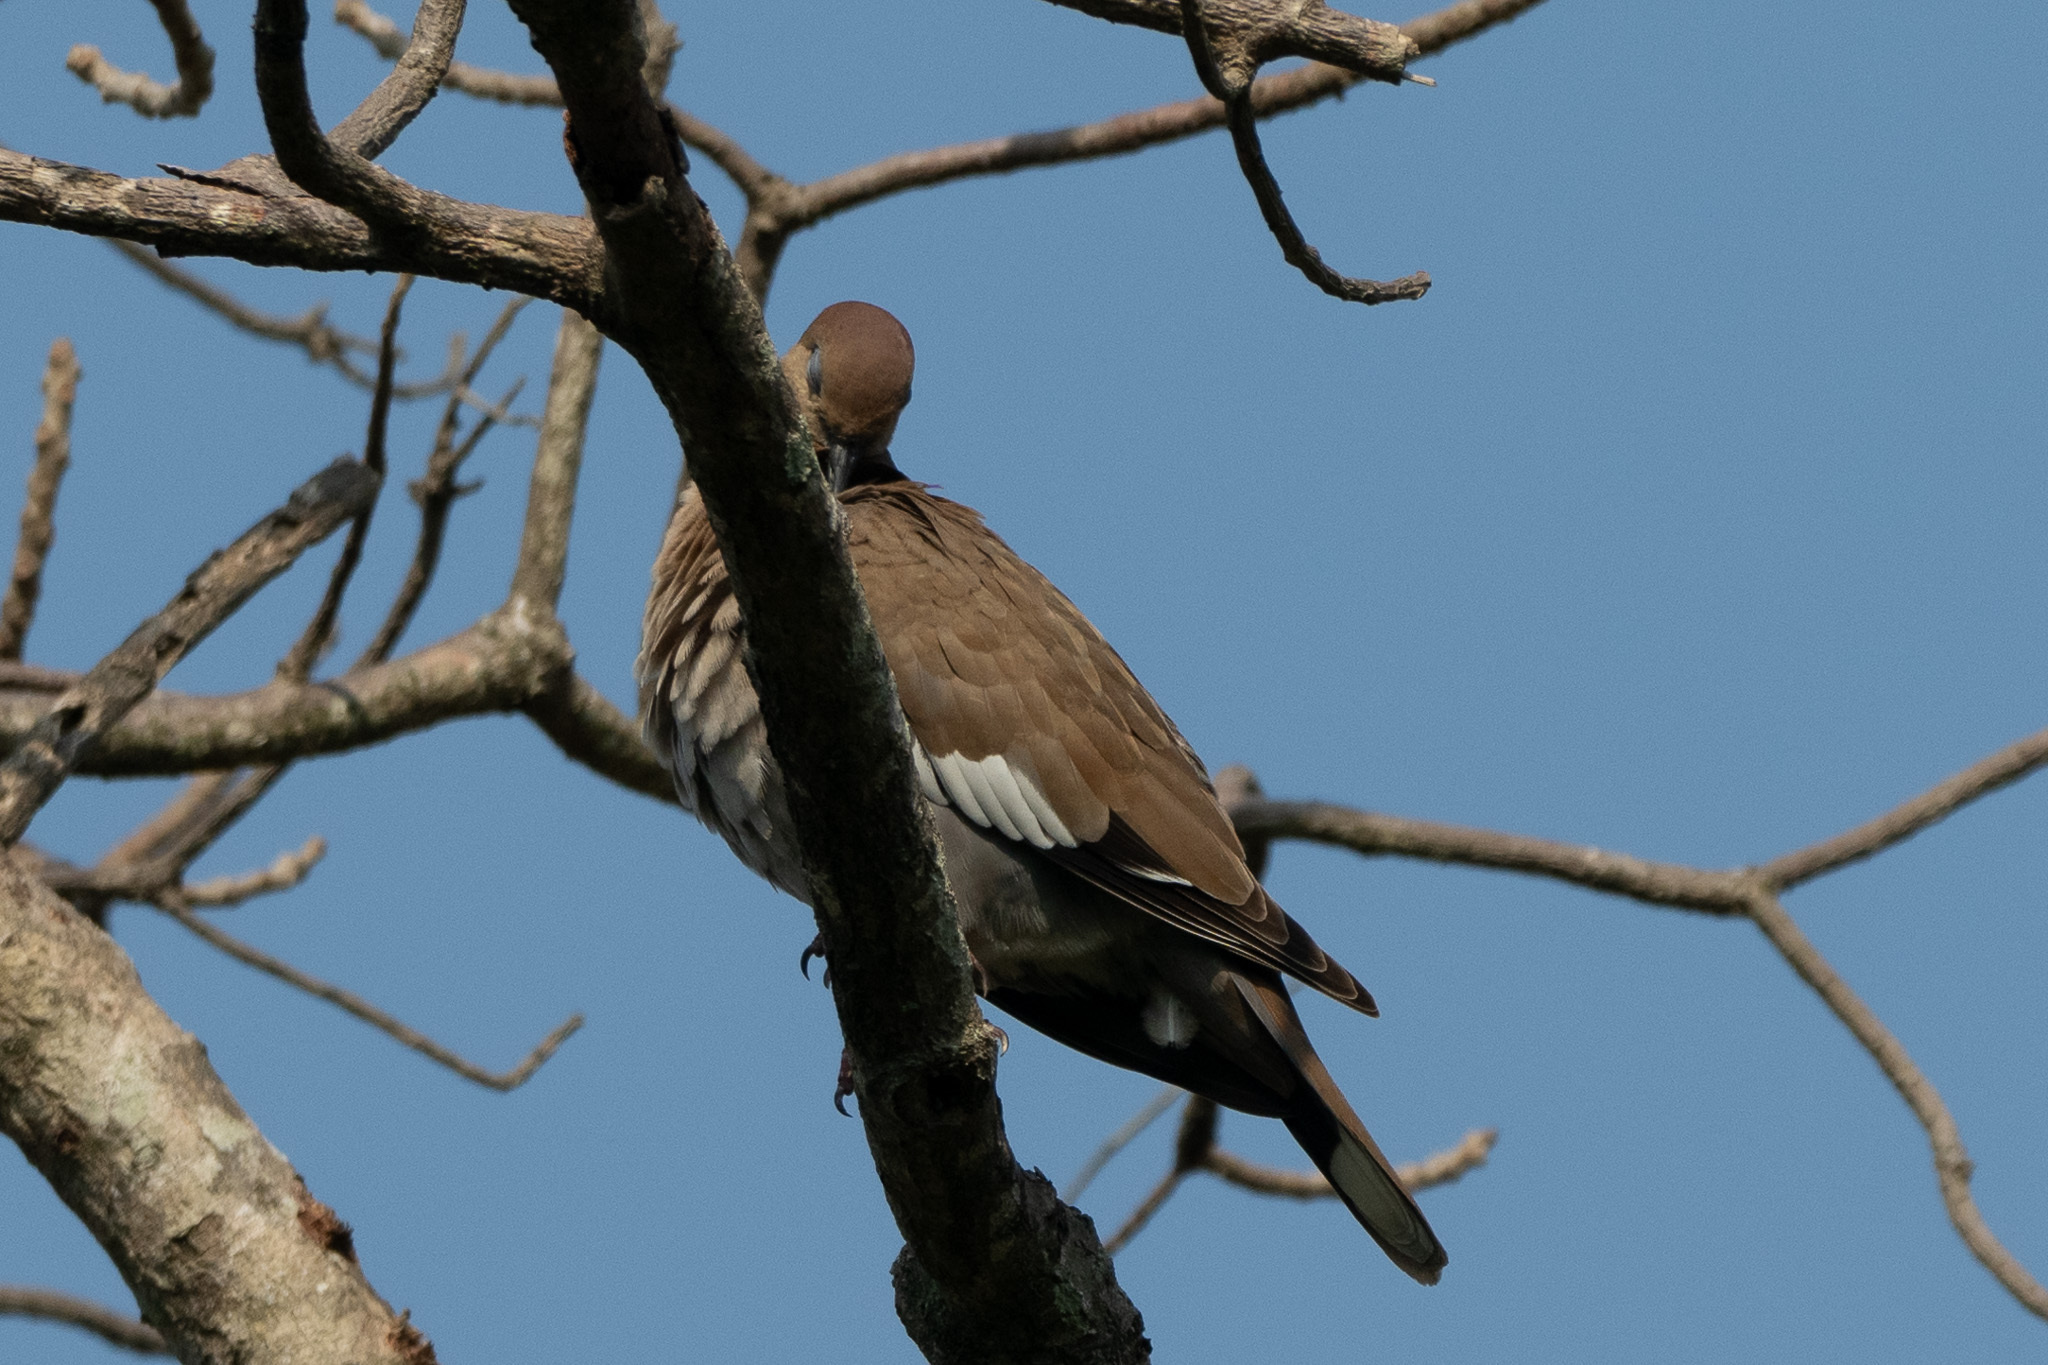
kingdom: Animalia
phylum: Chordata
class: Aves
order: Columbiformes
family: Columbidae
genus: Zenaida
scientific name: Zenaida asiatica
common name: White-winged dove
